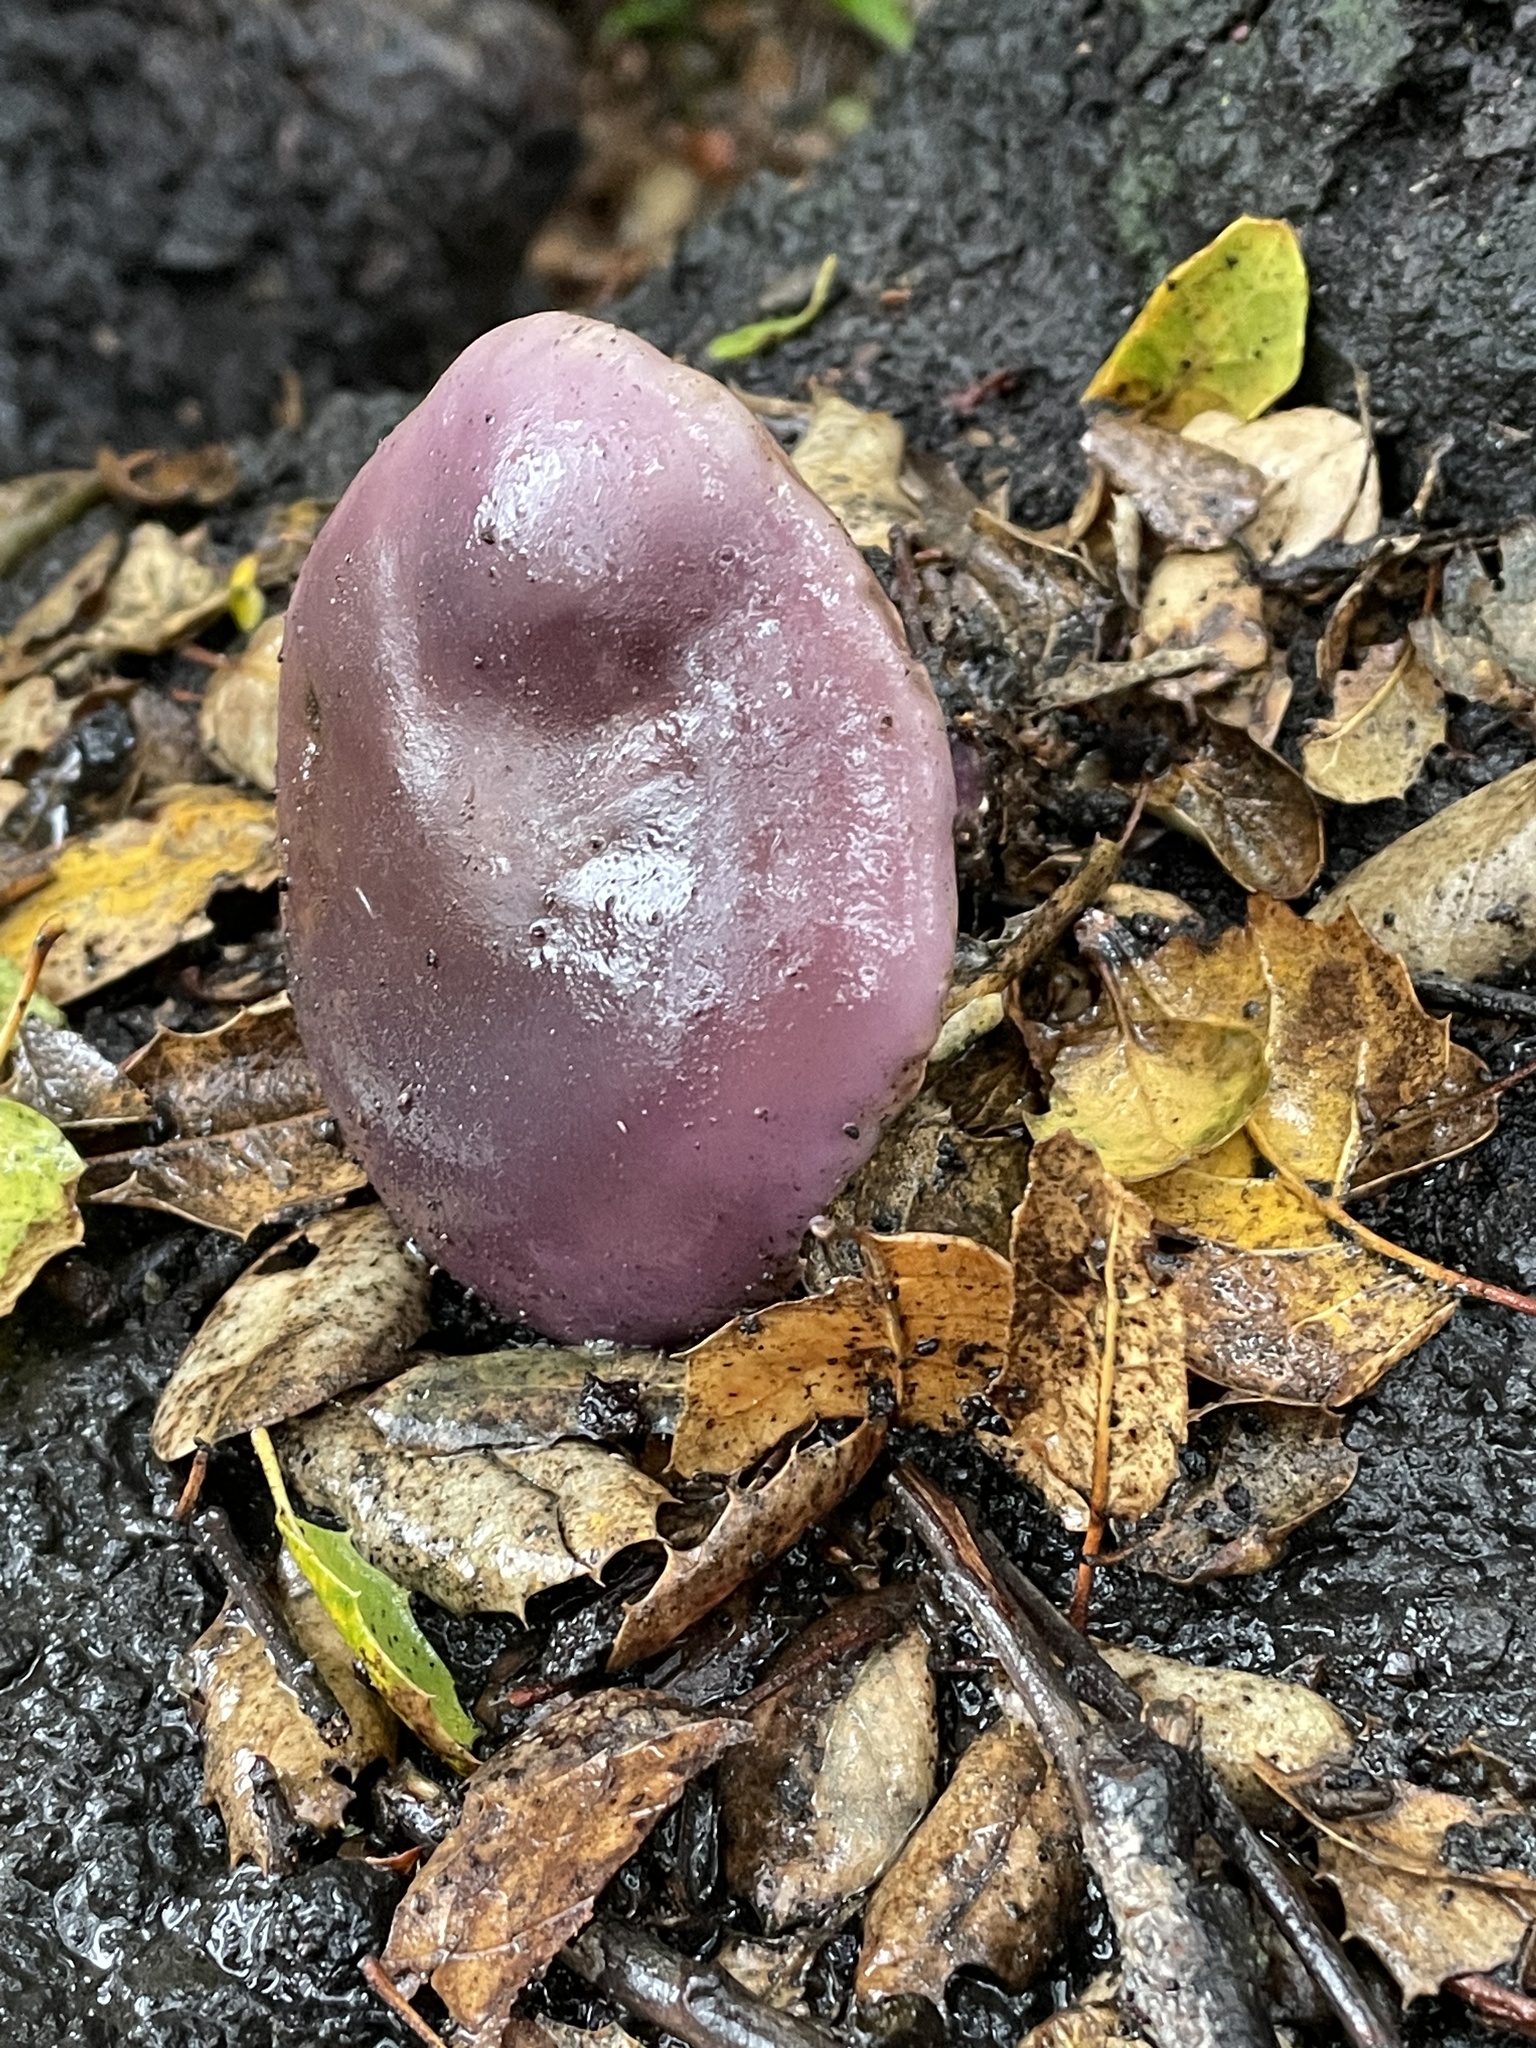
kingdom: Fungi
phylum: Basidiomycota
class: Agaricomycetes
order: Agaricales
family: Tricholomataceae
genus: Collybia
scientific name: Collybia
